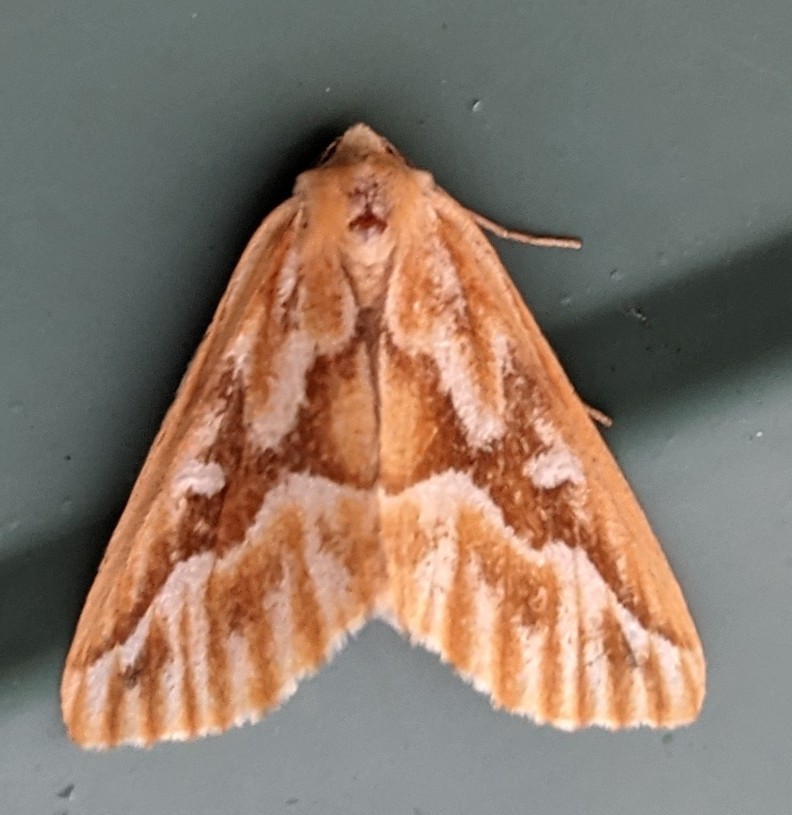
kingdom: Animalia
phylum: Arthropoda
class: Insecta
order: Lepidoptera
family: Geometridae
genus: Caripeta
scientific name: Caripeta piniata
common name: Northern pine looper moth
